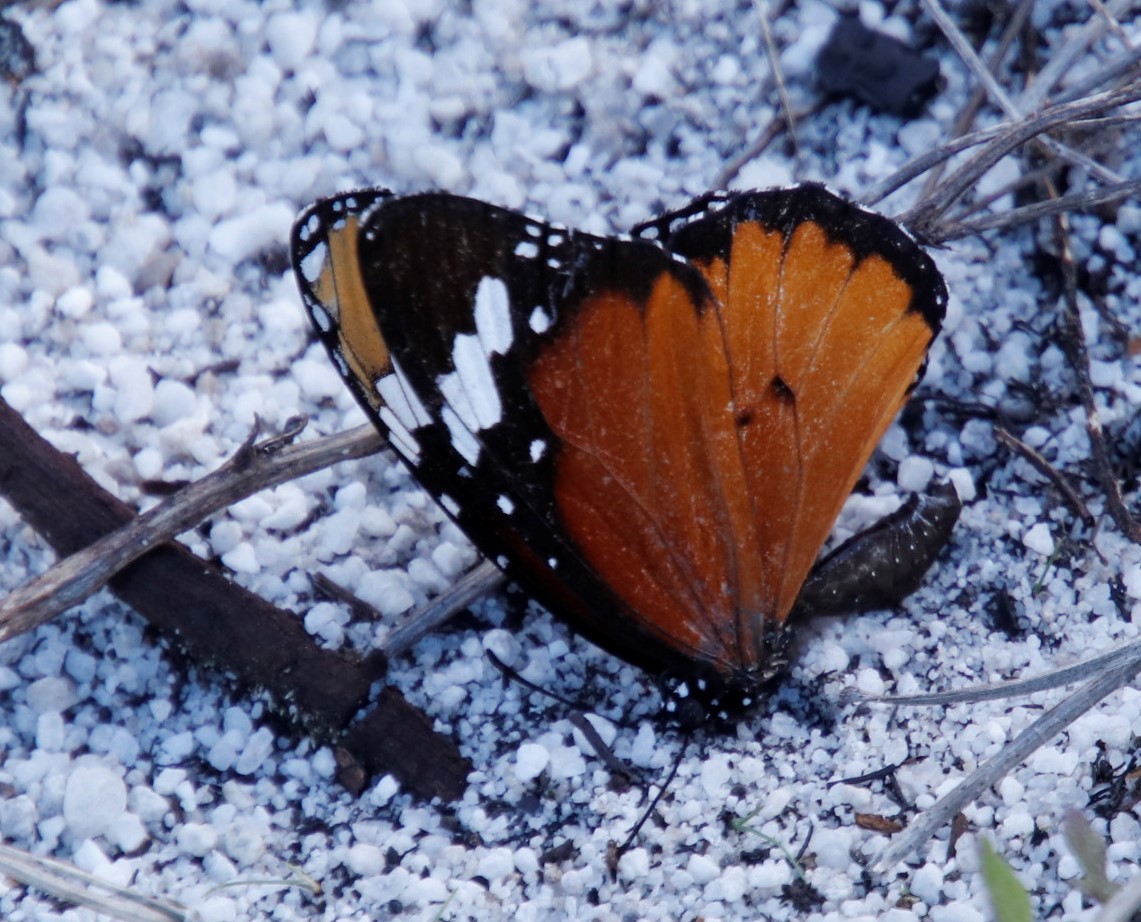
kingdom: Animalia
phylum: Arthropoda
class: Insecta
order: Lepidoptera
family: Nymphalidae
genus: Danaus
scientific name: Danaus chrysippus
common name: Plain tiger
